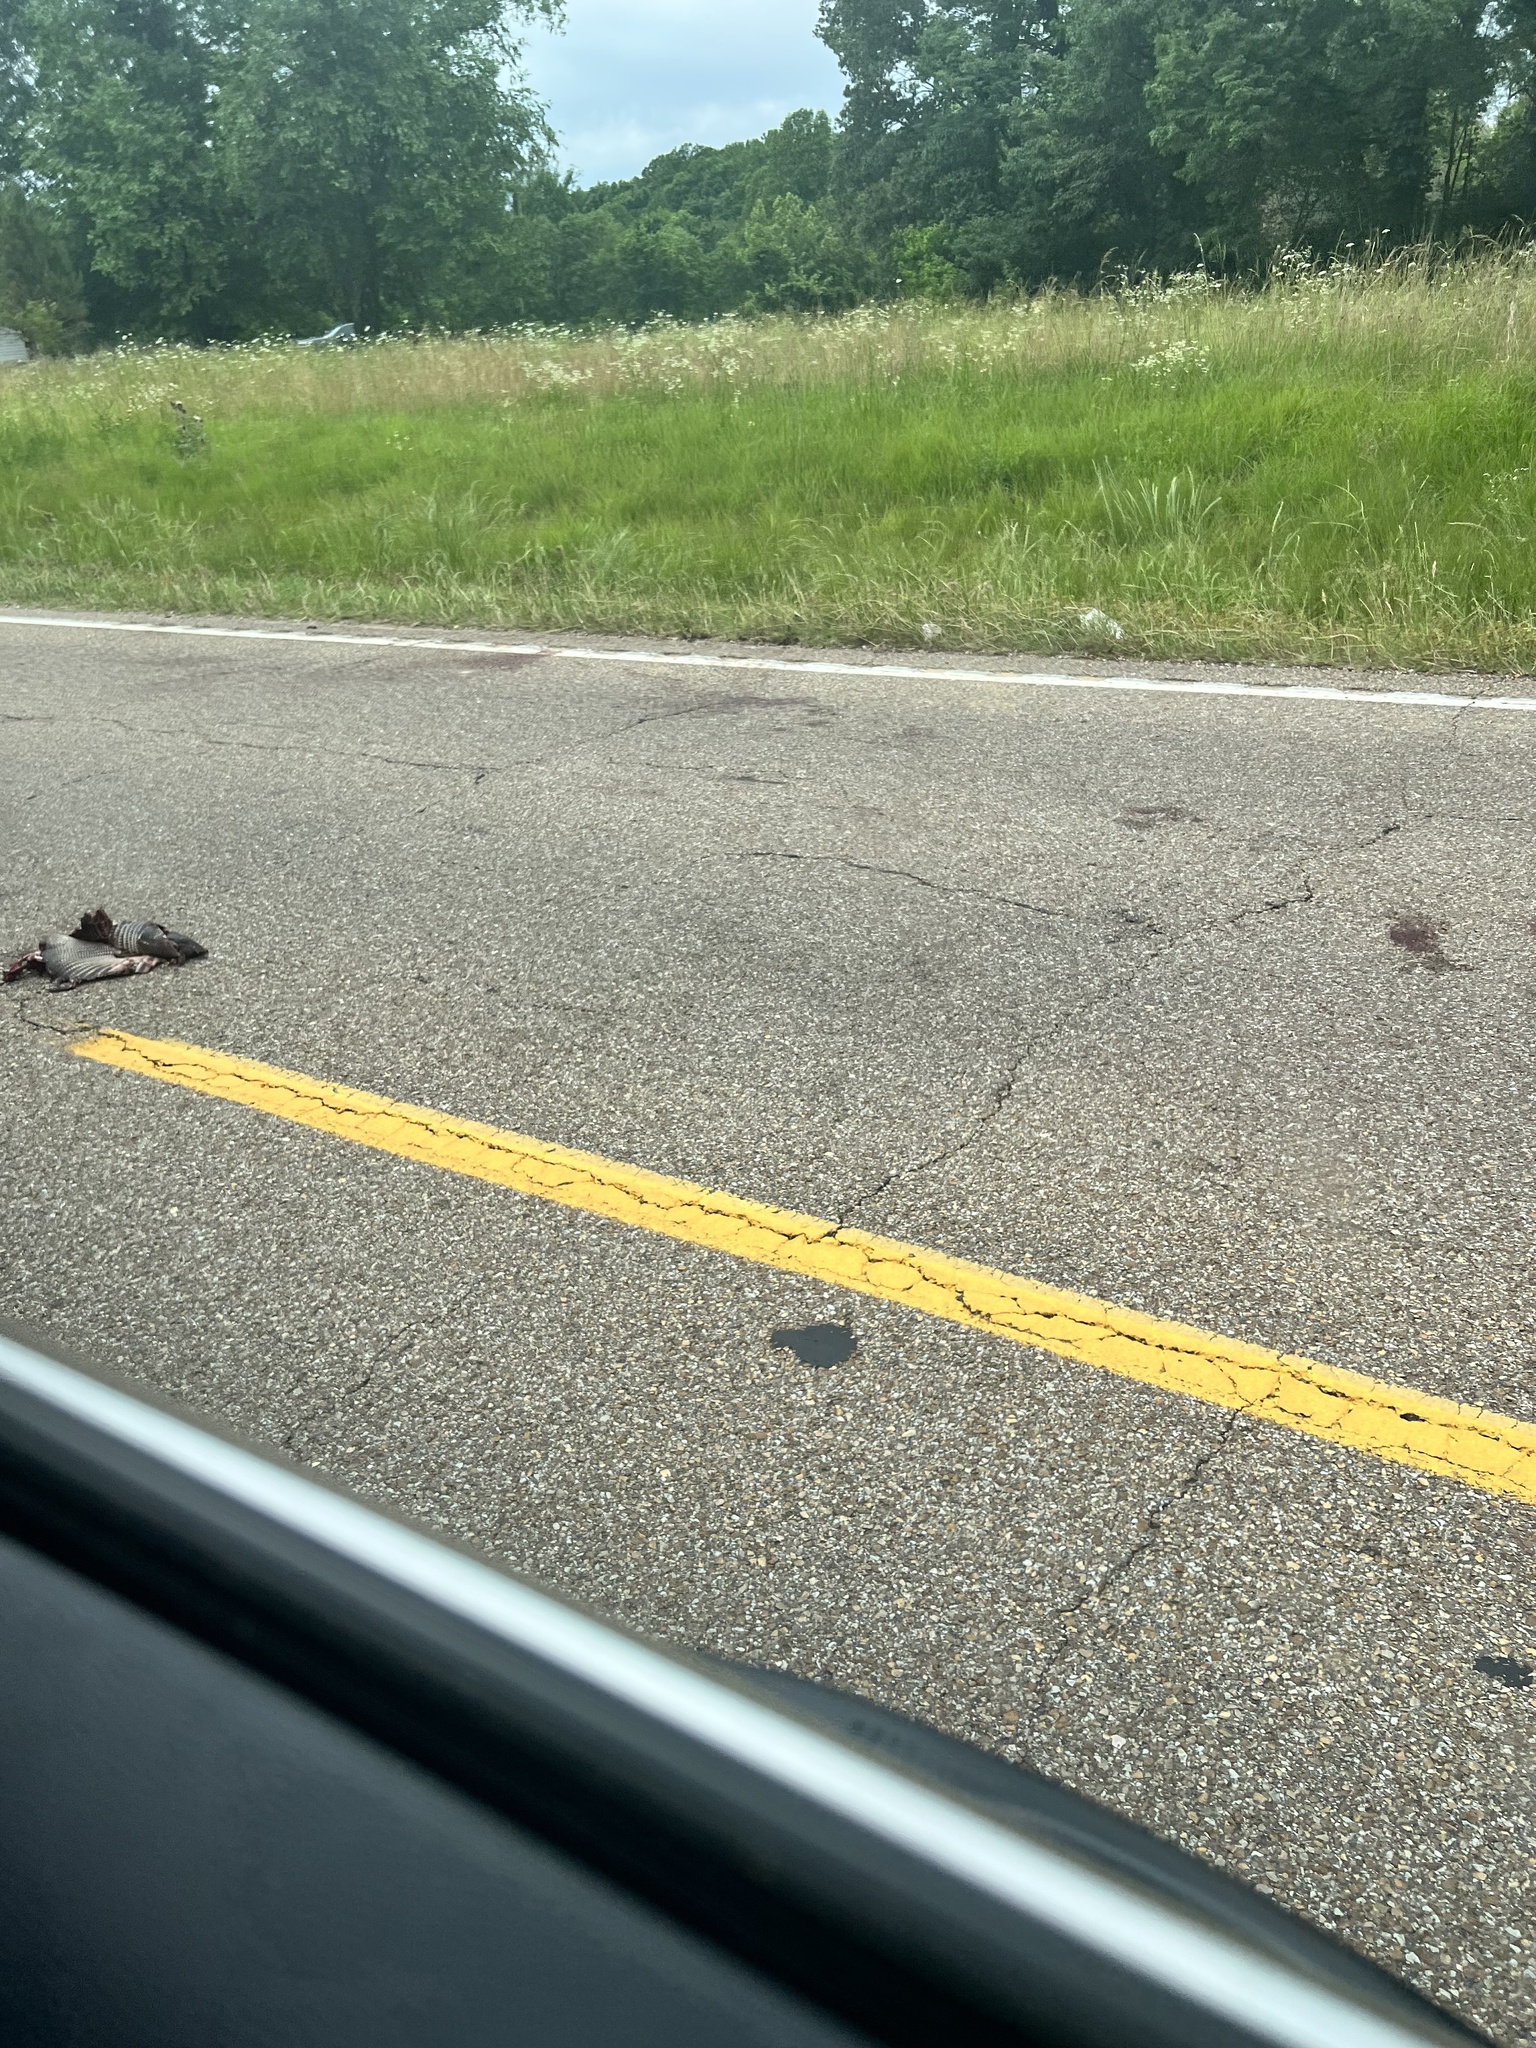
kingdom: Animalia
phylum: Chordata
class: Mammalia
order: Cingulata
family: Dasypodidae
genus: Dasypus
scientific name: Dasypus novemcinctus
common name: Nine-banded armadillo
